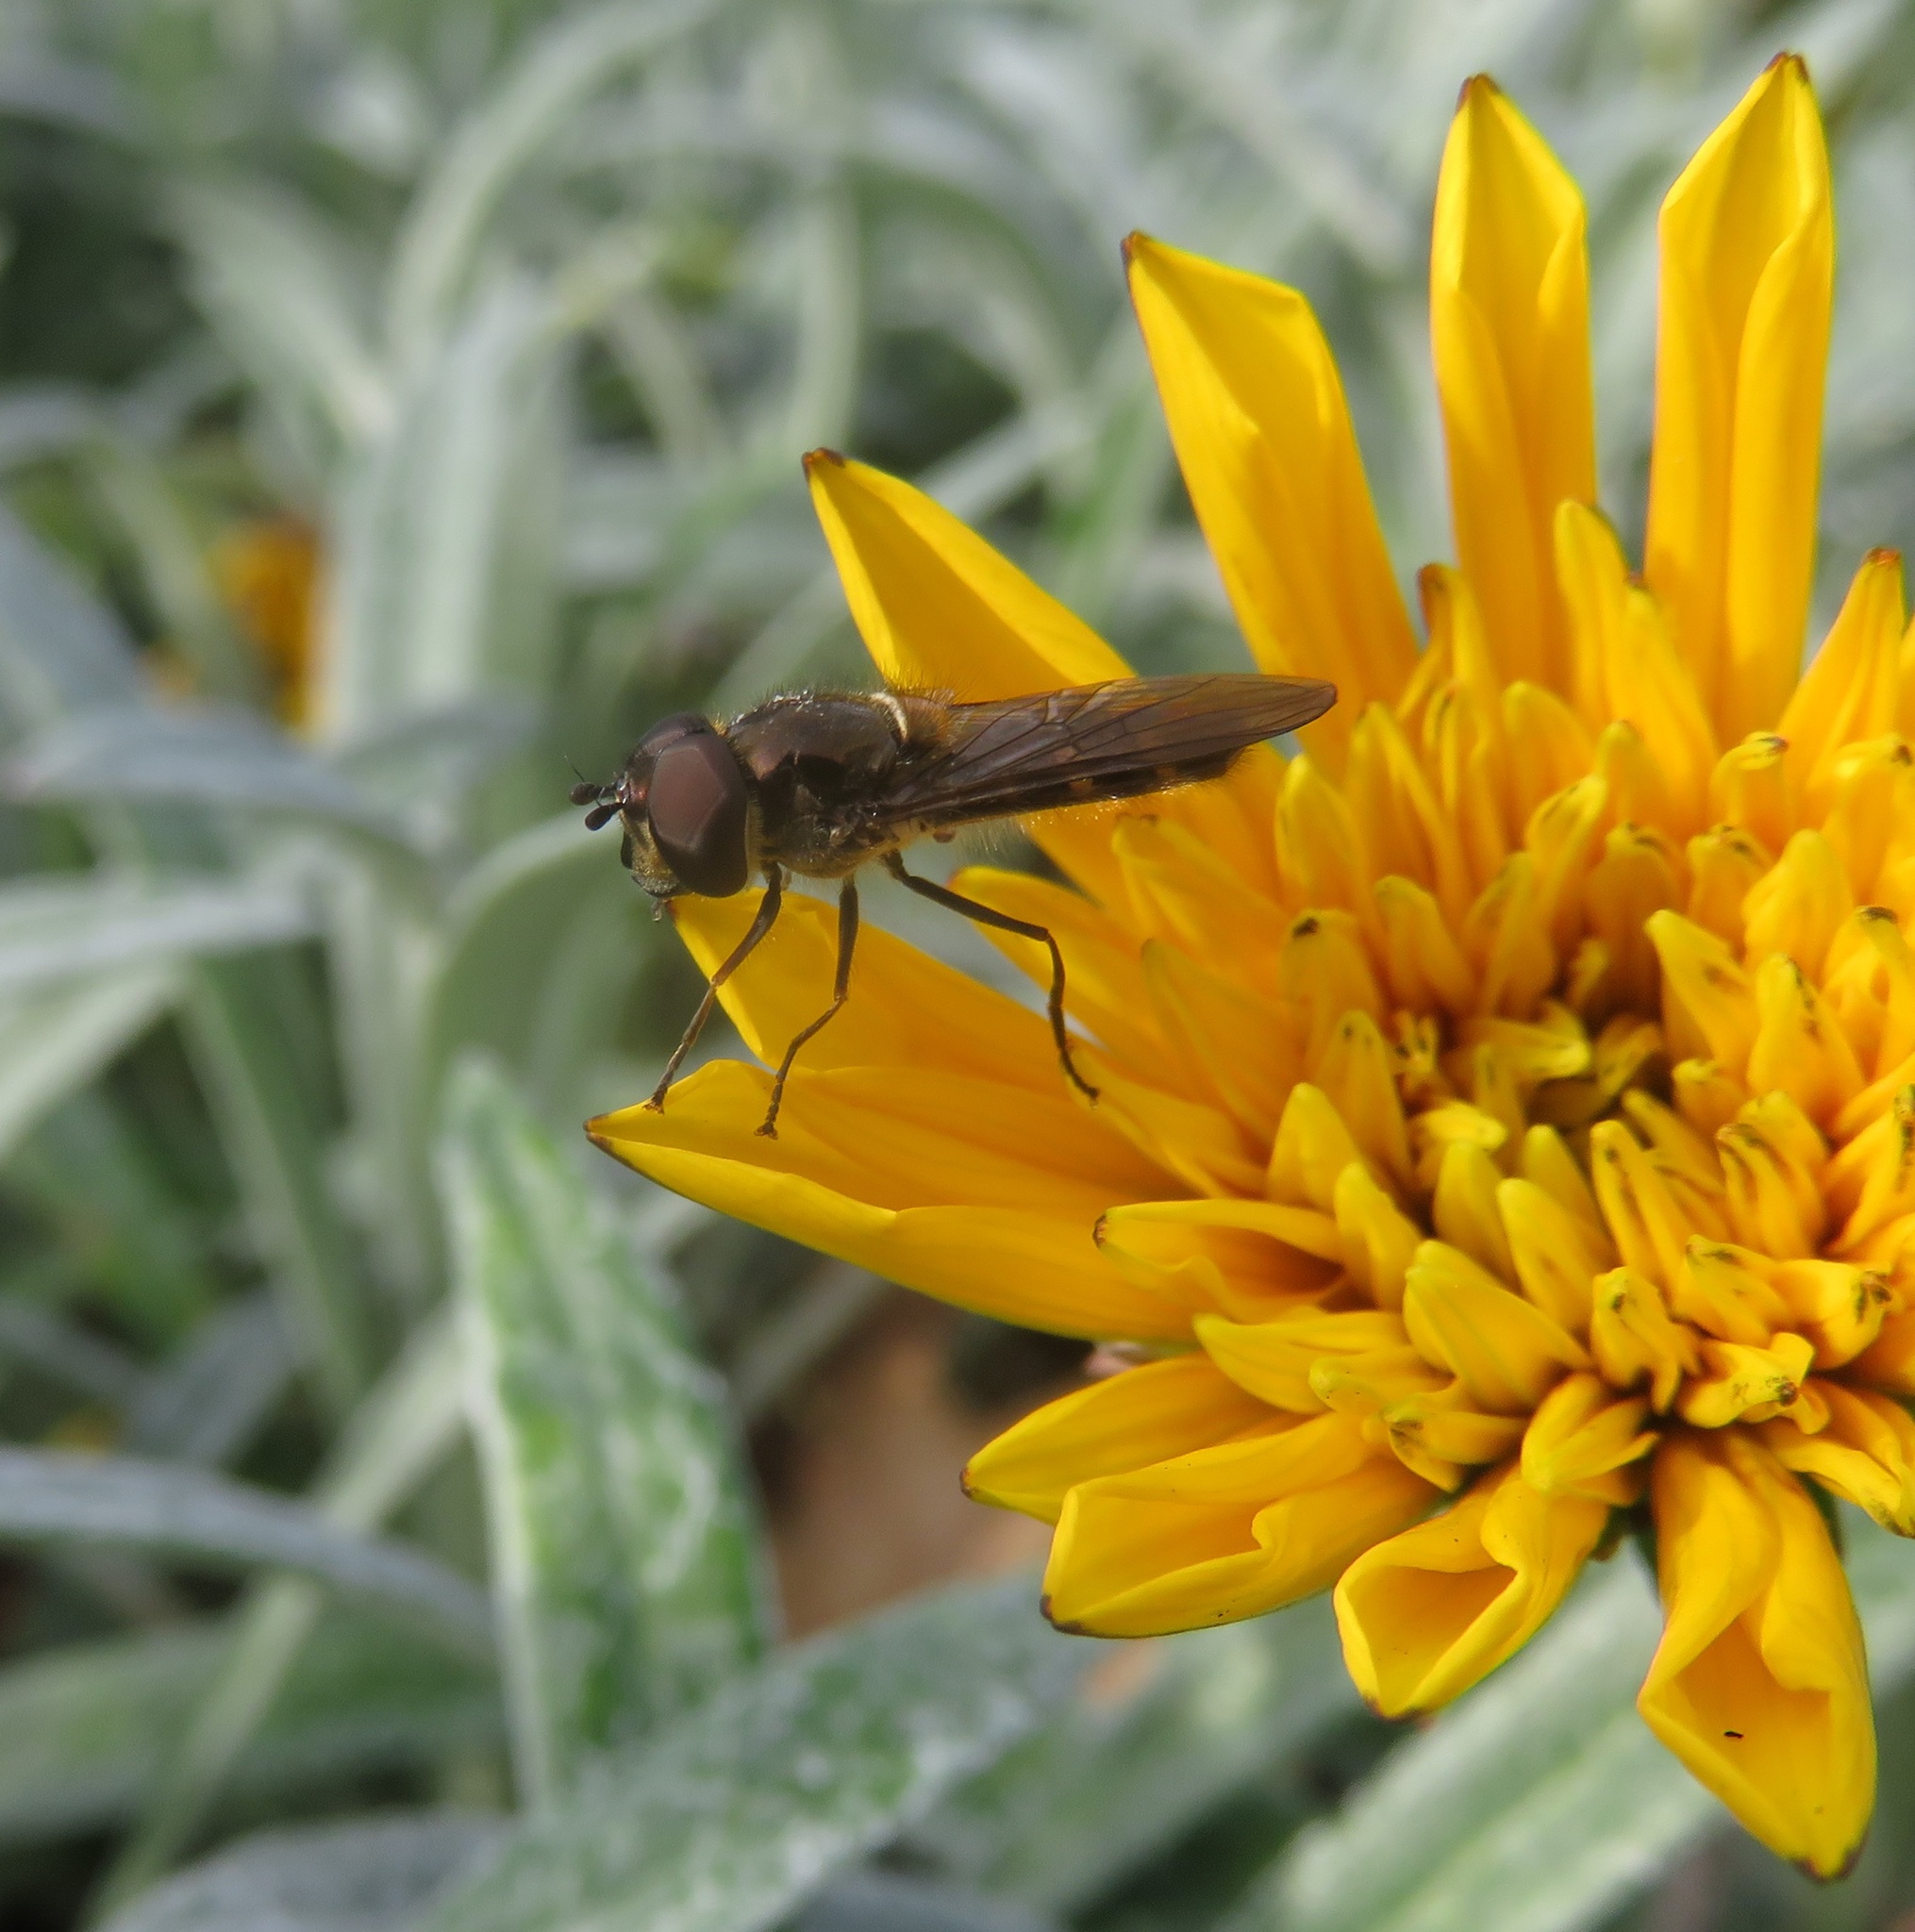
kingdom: Animalia
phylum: Arthropoda
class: Insecta
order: Diptera
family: Syrphidae
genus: Melangyna
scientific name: Melangyna novaezelandiae
